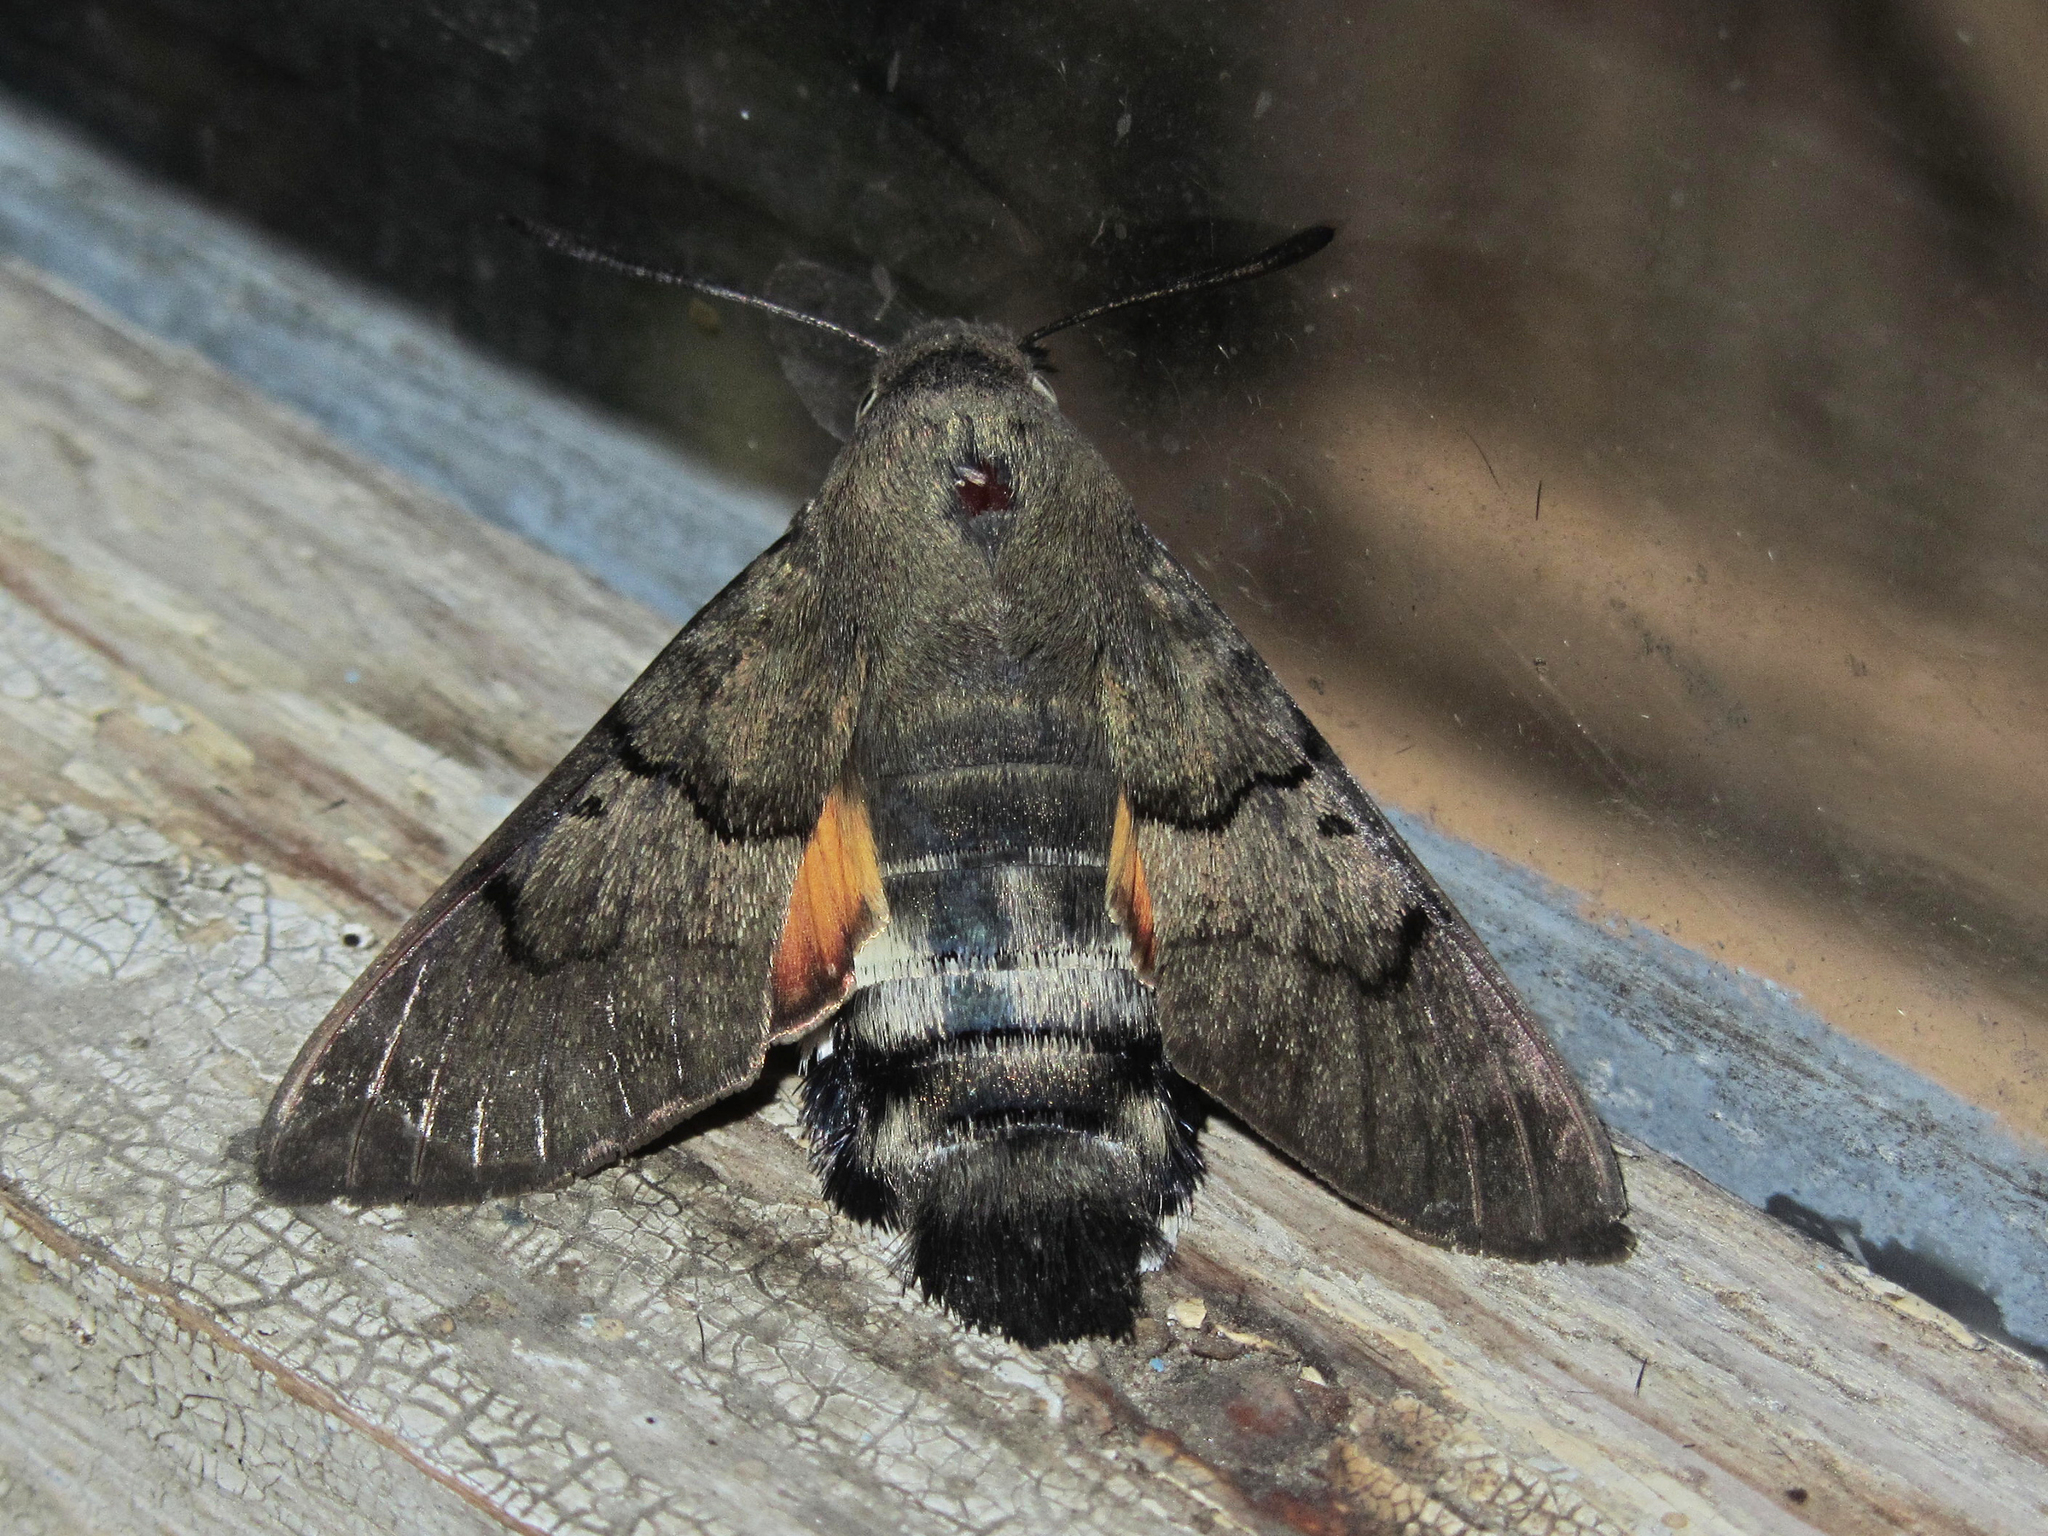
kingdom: Animalia
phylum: Arthropoda
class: Insecta
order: Lepidoptera
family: Sphingidae
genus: Macroglossum
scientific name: Macroglossum stellatarum
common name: Humming-bird hawk-moth
